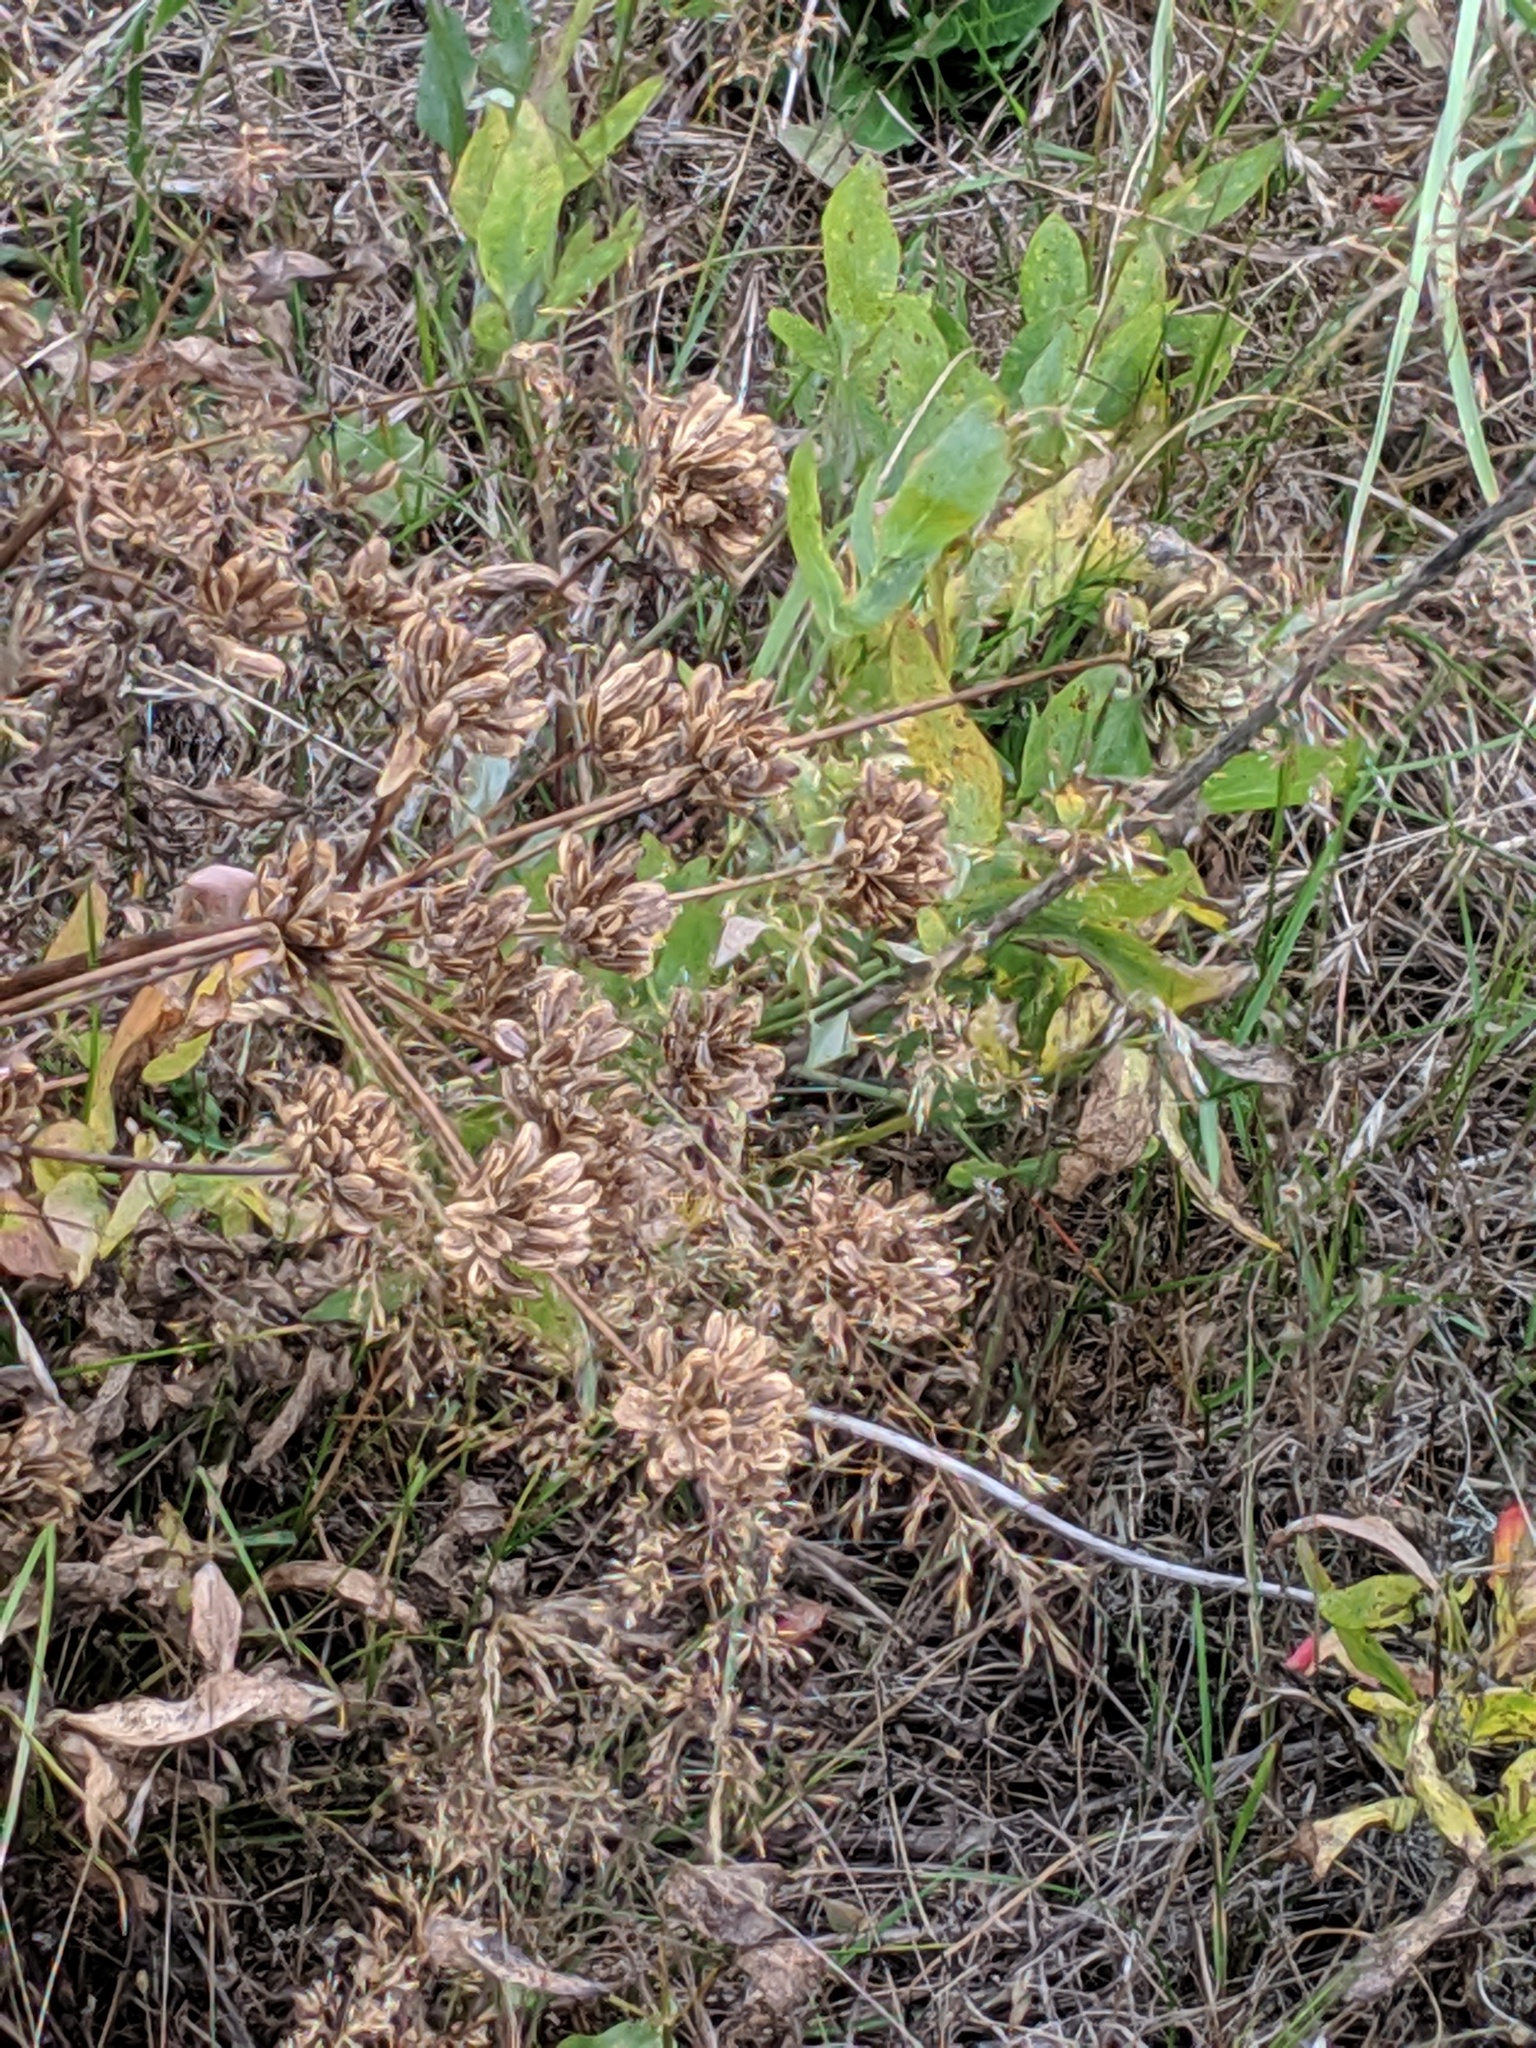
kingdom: Plantae
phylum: Tracheophyta
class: Magnoliopsida
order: Apiales
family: Apiaceae
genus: Lomatium
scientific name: Lomatium nudicaule
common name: Pestle lomatium
